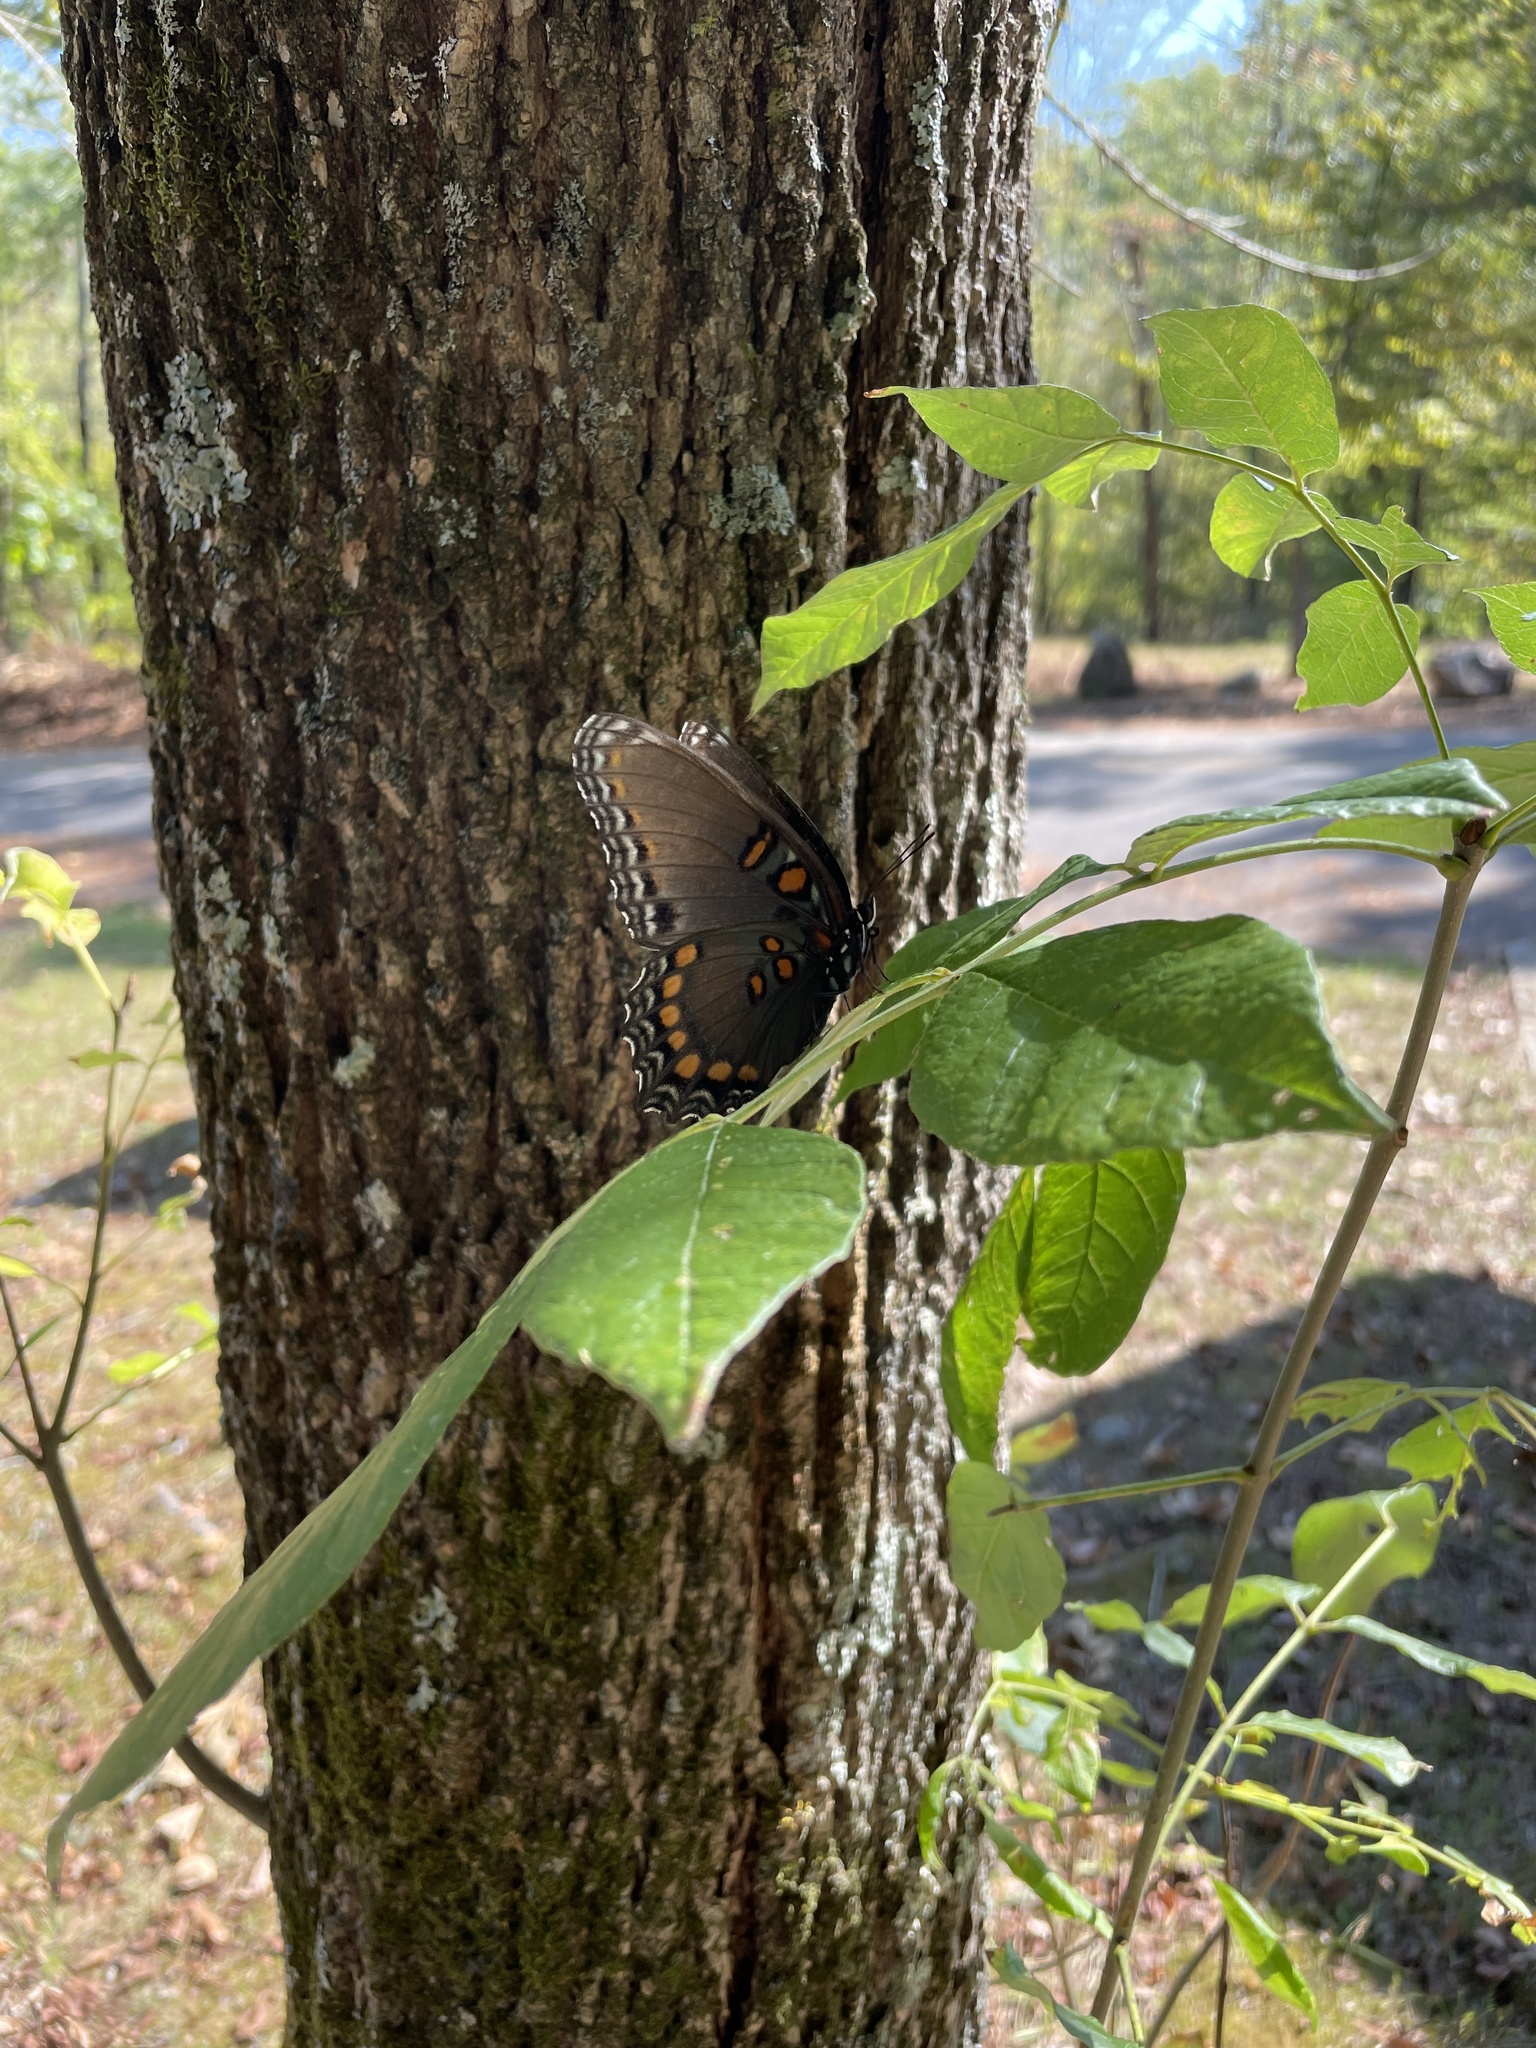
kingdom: Animalia
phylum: Arthropoda
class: Insecta
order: Lepidoptera
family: Nymphalidae
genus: Limenitis
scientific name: Limenitis astyanax
